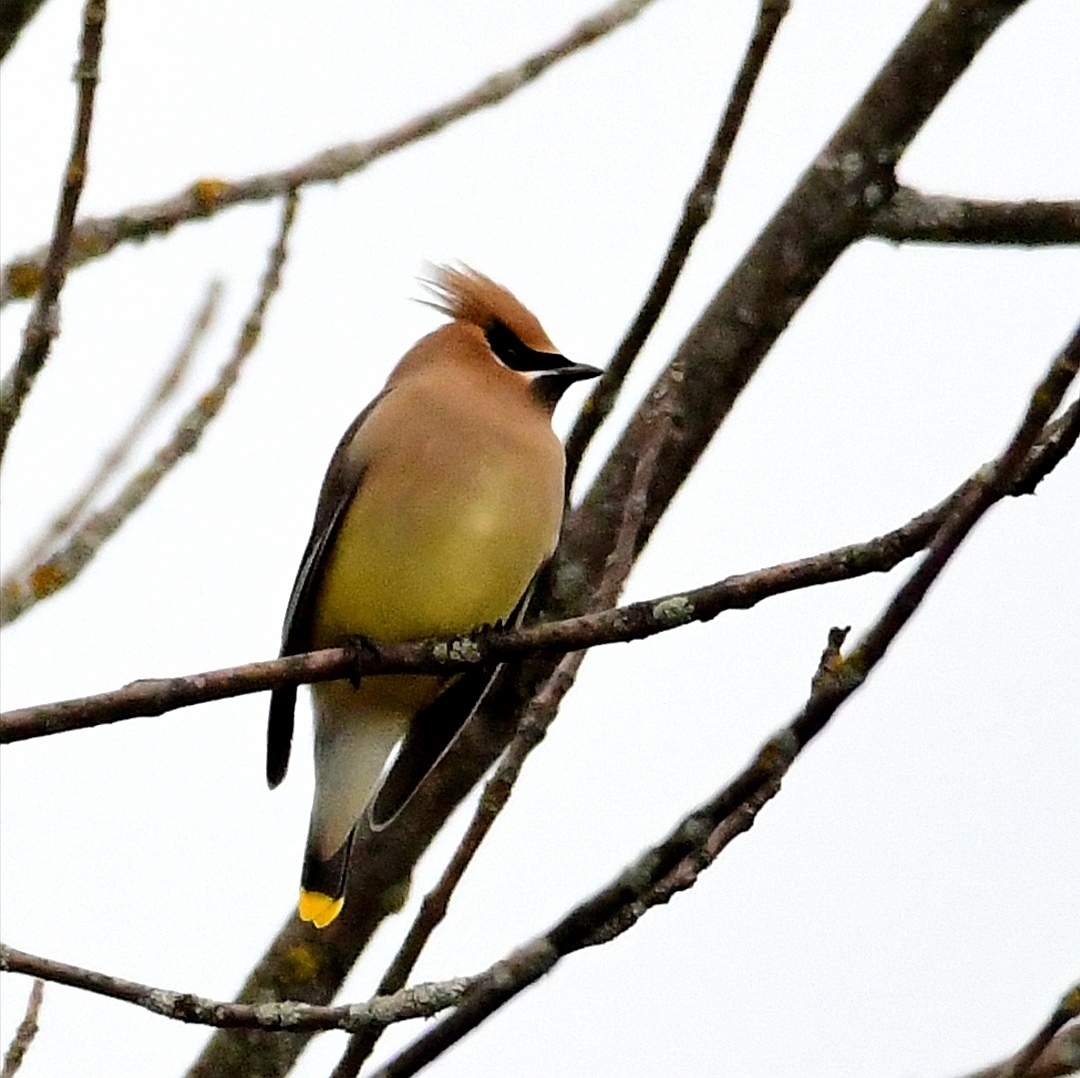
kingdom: Animalia
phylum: Chordata
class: Aves
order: Passeriformes
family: Bombycillidae
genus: Bombycilla
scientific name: Bombycilla cedrorum
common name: Cedar waxwing
